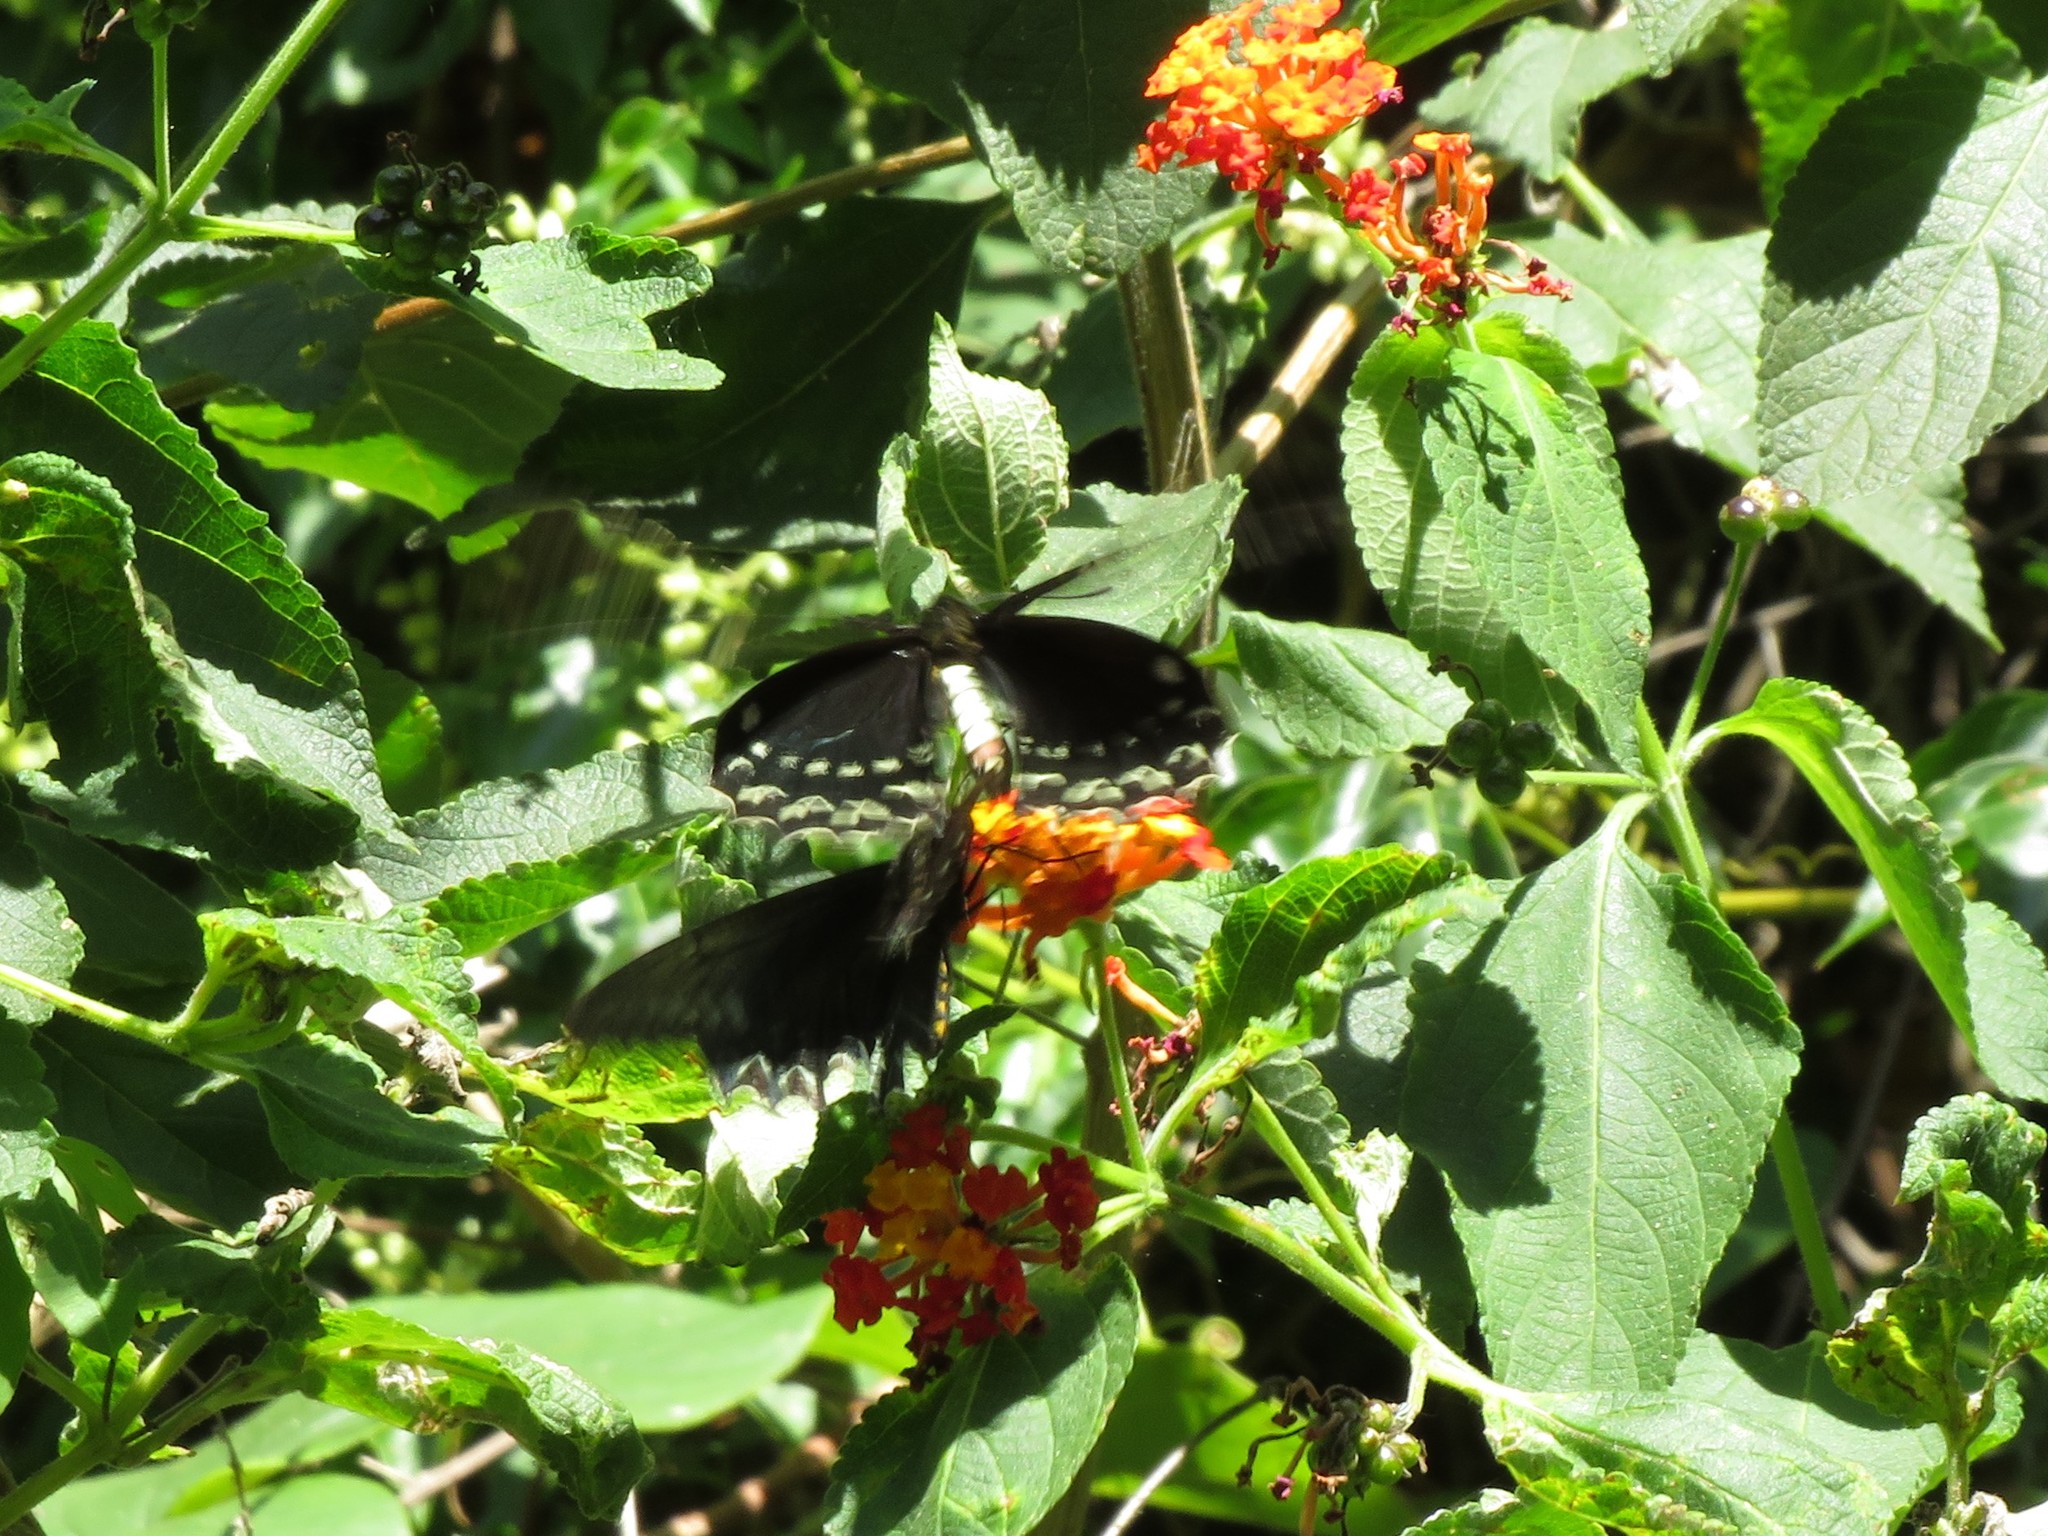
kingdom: Animalia
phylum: Arthropoda
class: Insecta
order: Lepidoptera
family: Papilionidae
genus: Battus
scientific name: Battus polystictus
